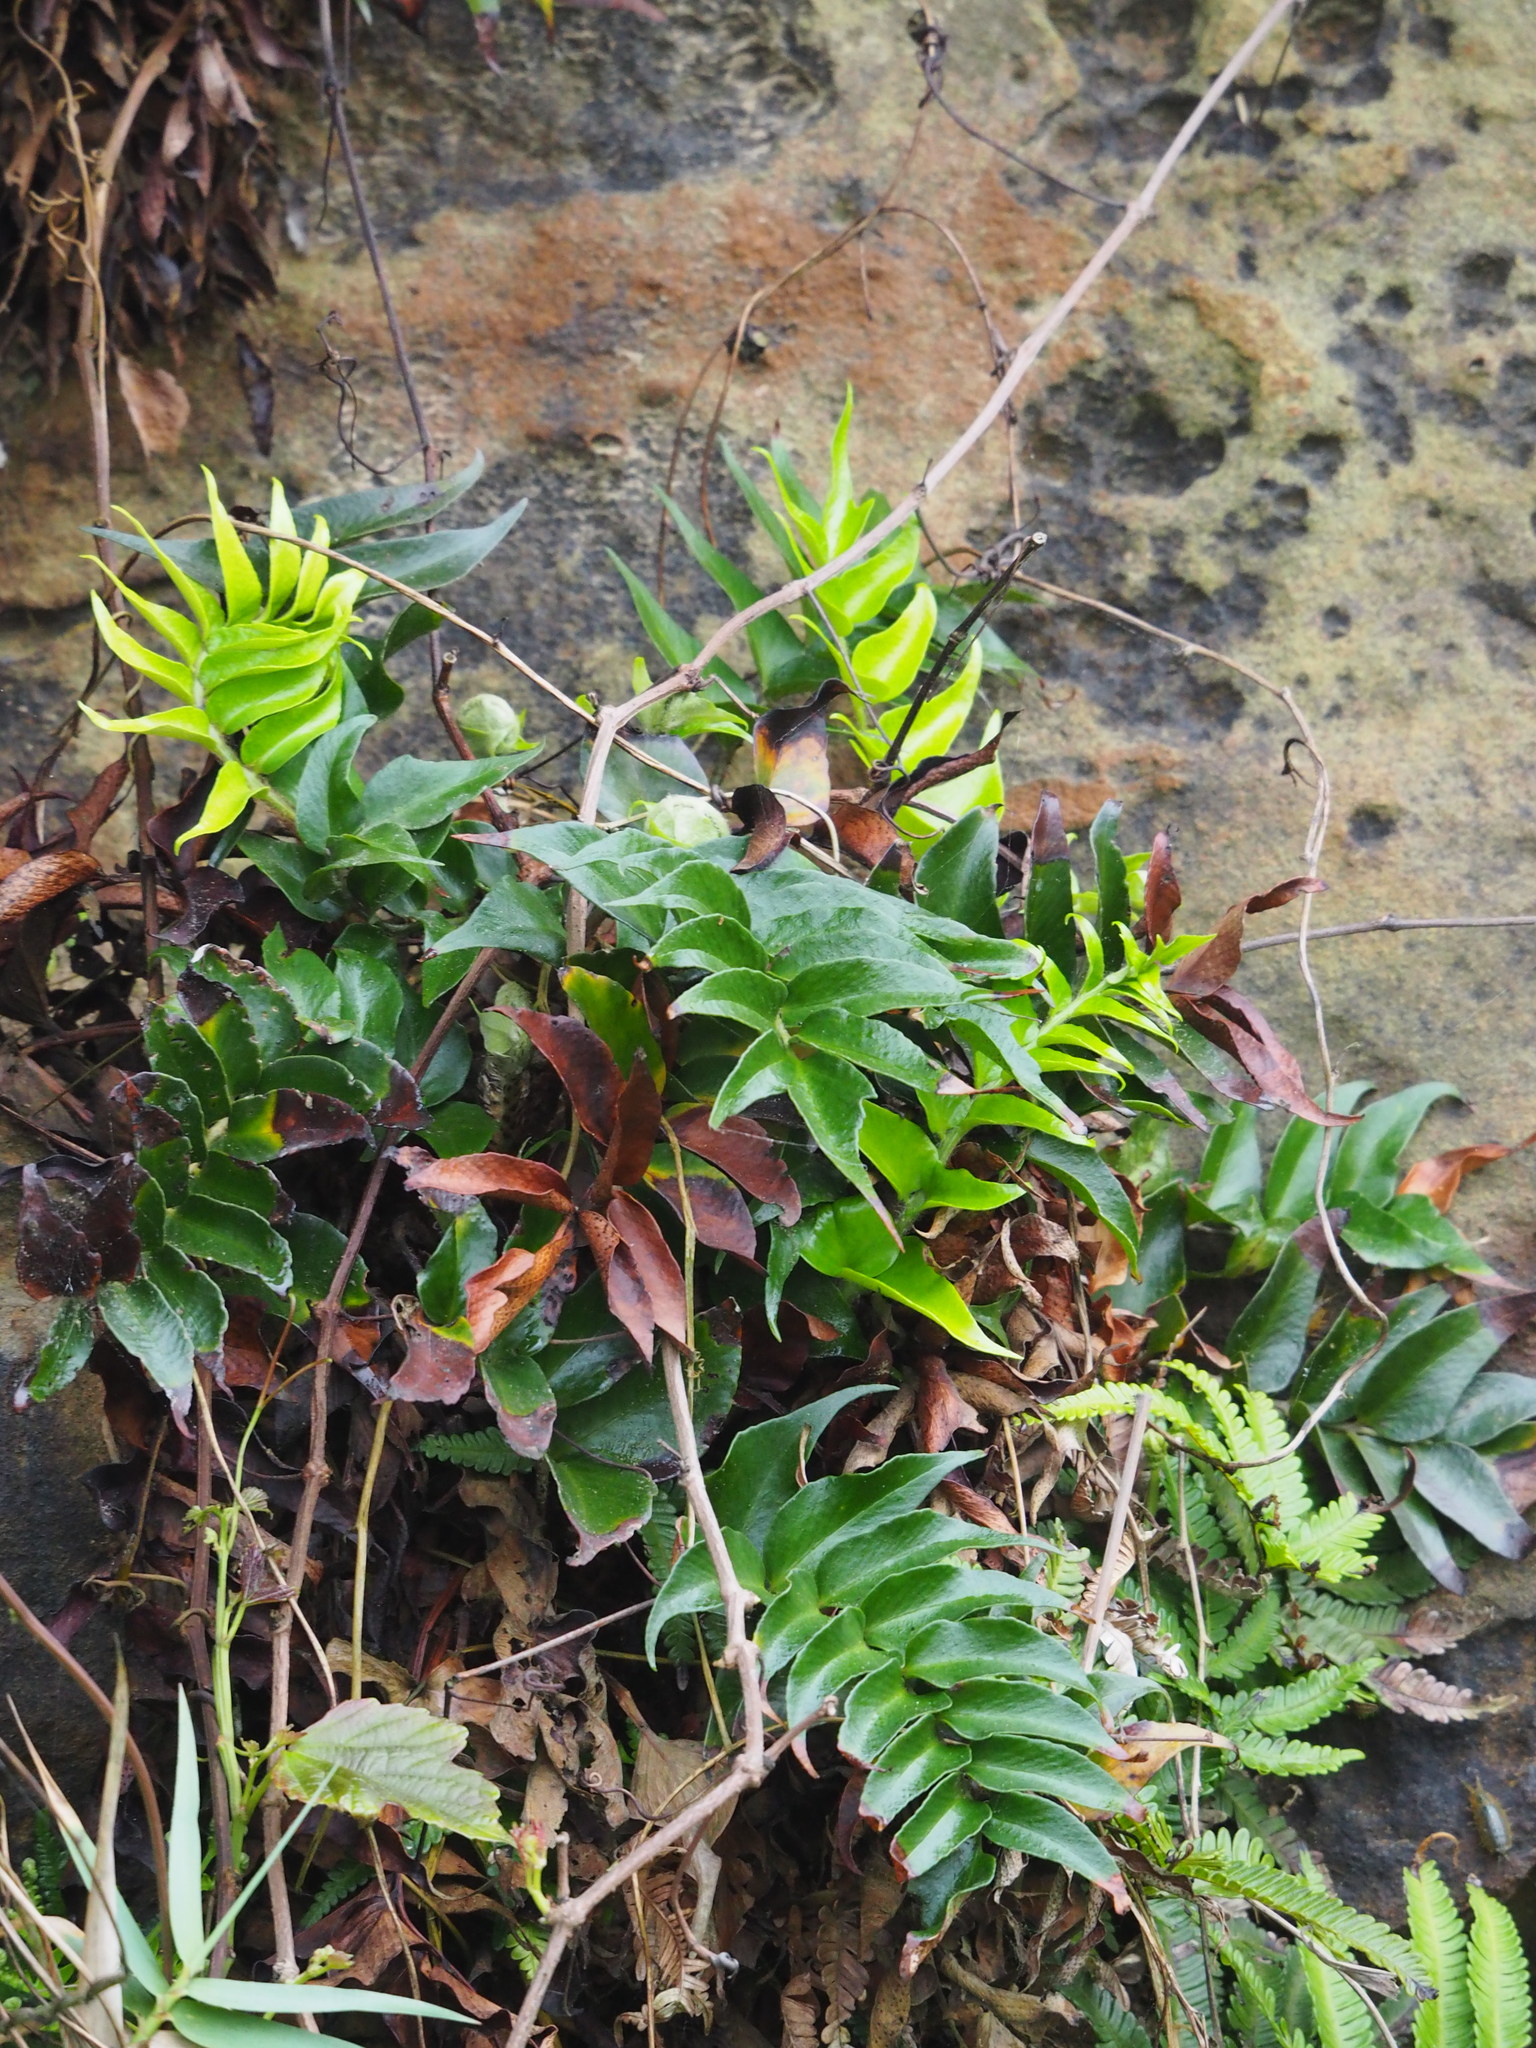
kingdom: Plantae
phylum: Tracheophyta
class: Polypodiopsida
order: Polypodiales
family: Dryopteridaceae
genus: Cyrtomium
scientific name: Cyrtomium falcatum
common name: House holly-fern
